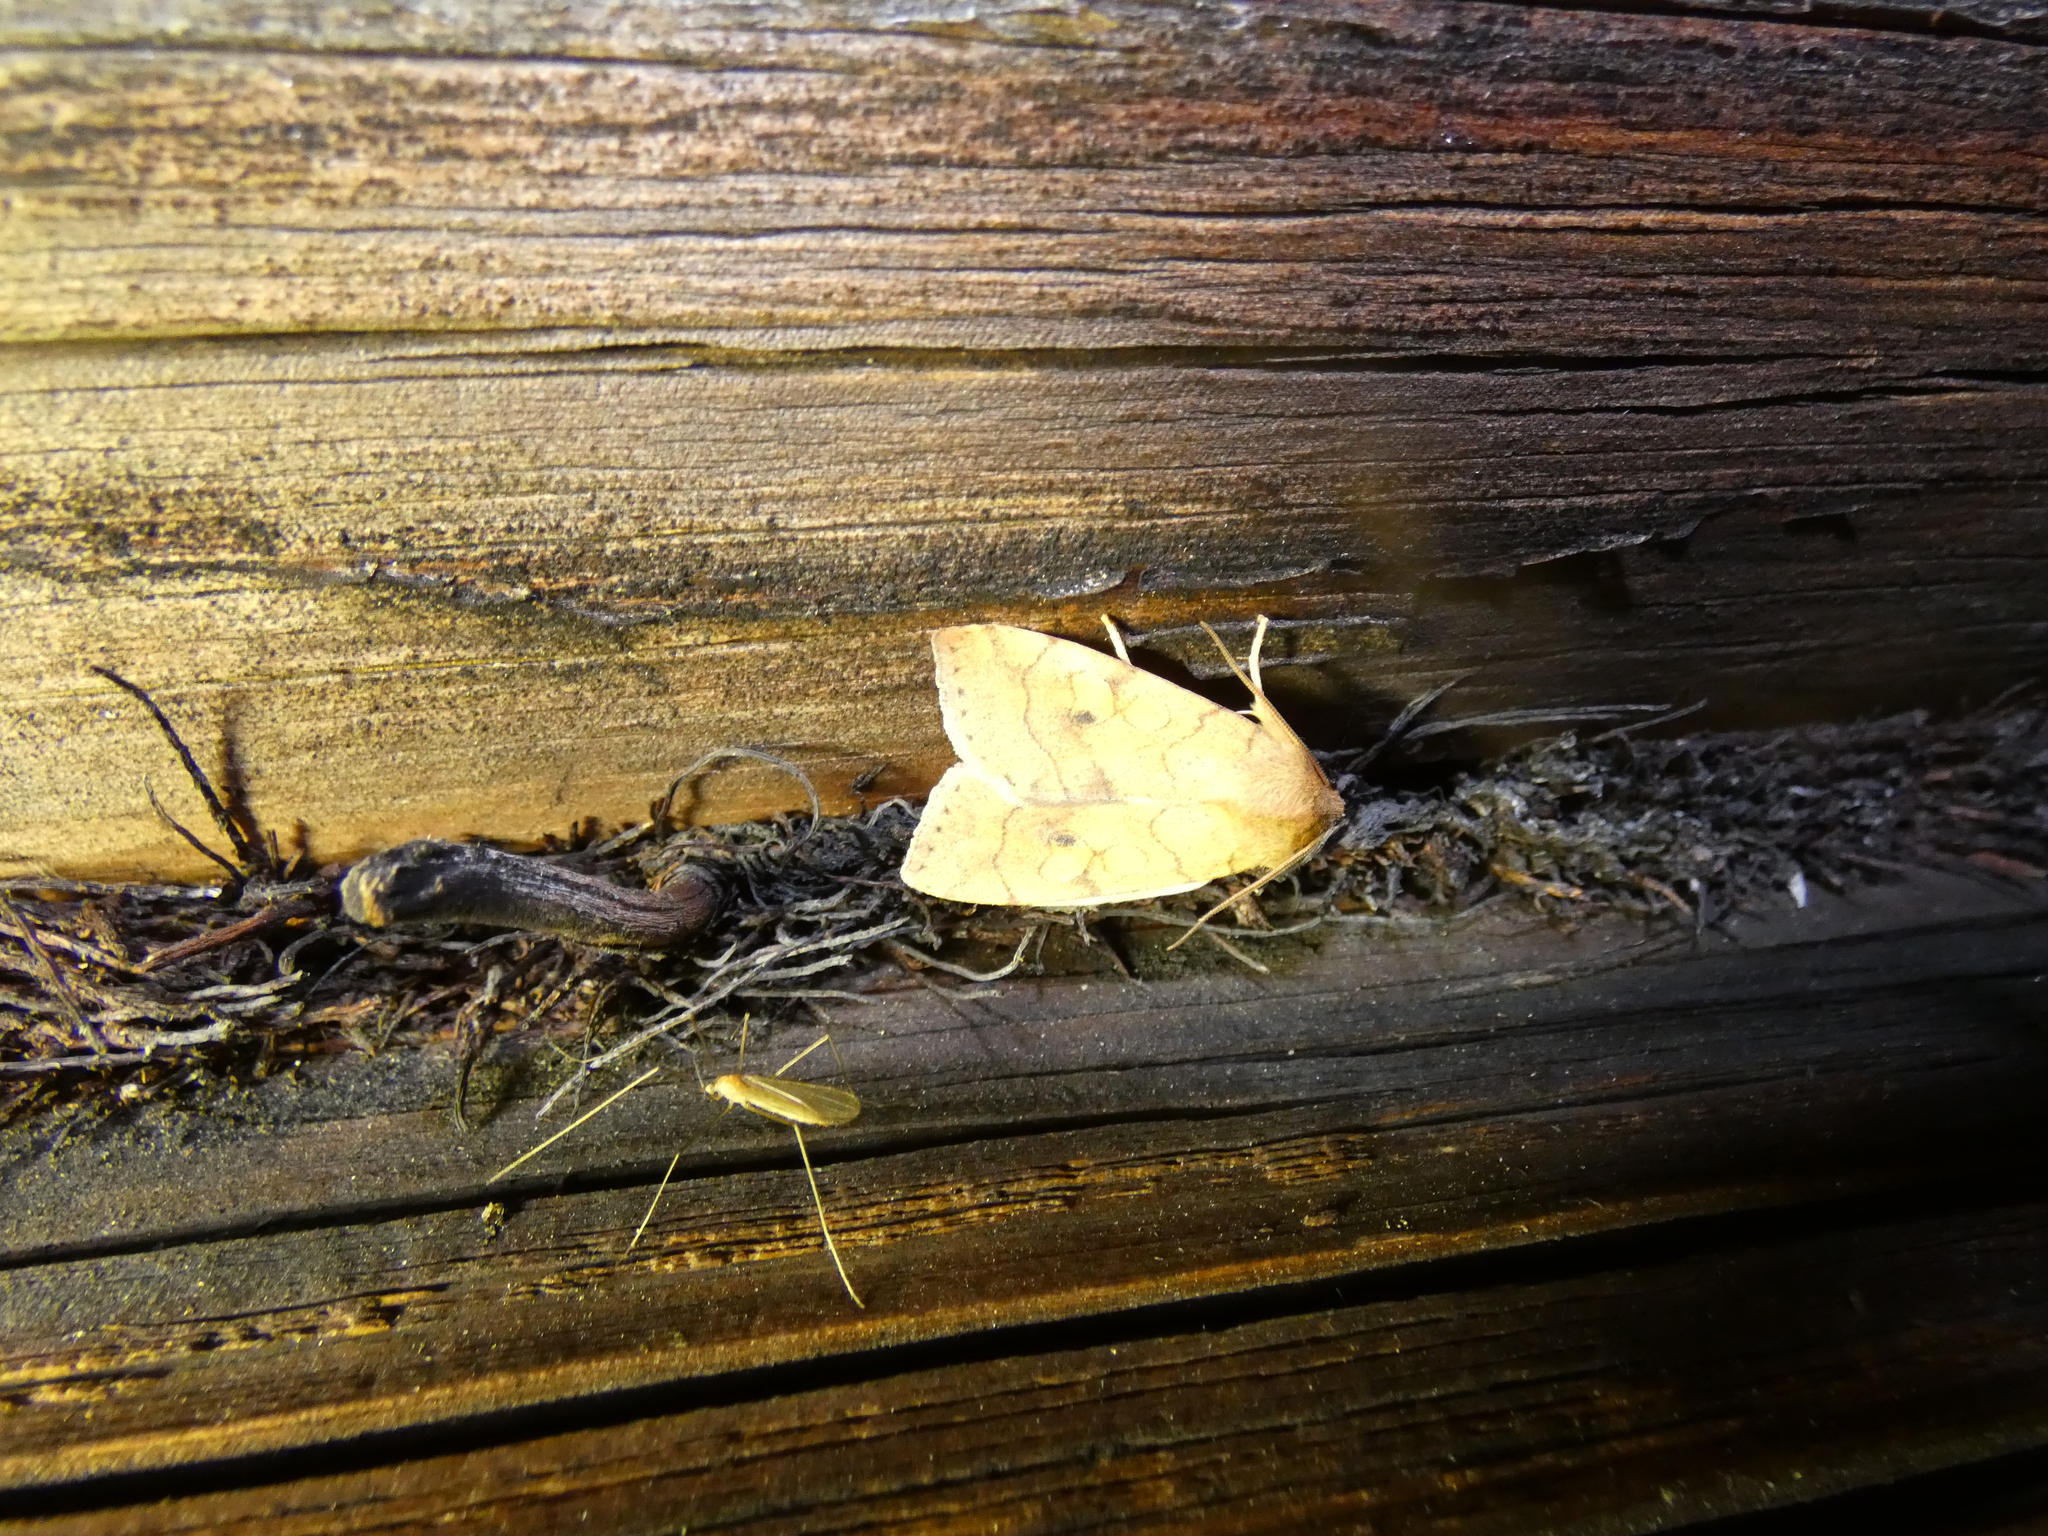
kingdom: Animalia
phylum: Arthropoda
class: Insecta
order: Lepidoptera
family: Noctuidae
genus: Enargia
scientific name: Enargia paleacea
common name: Angle-striped sallow
